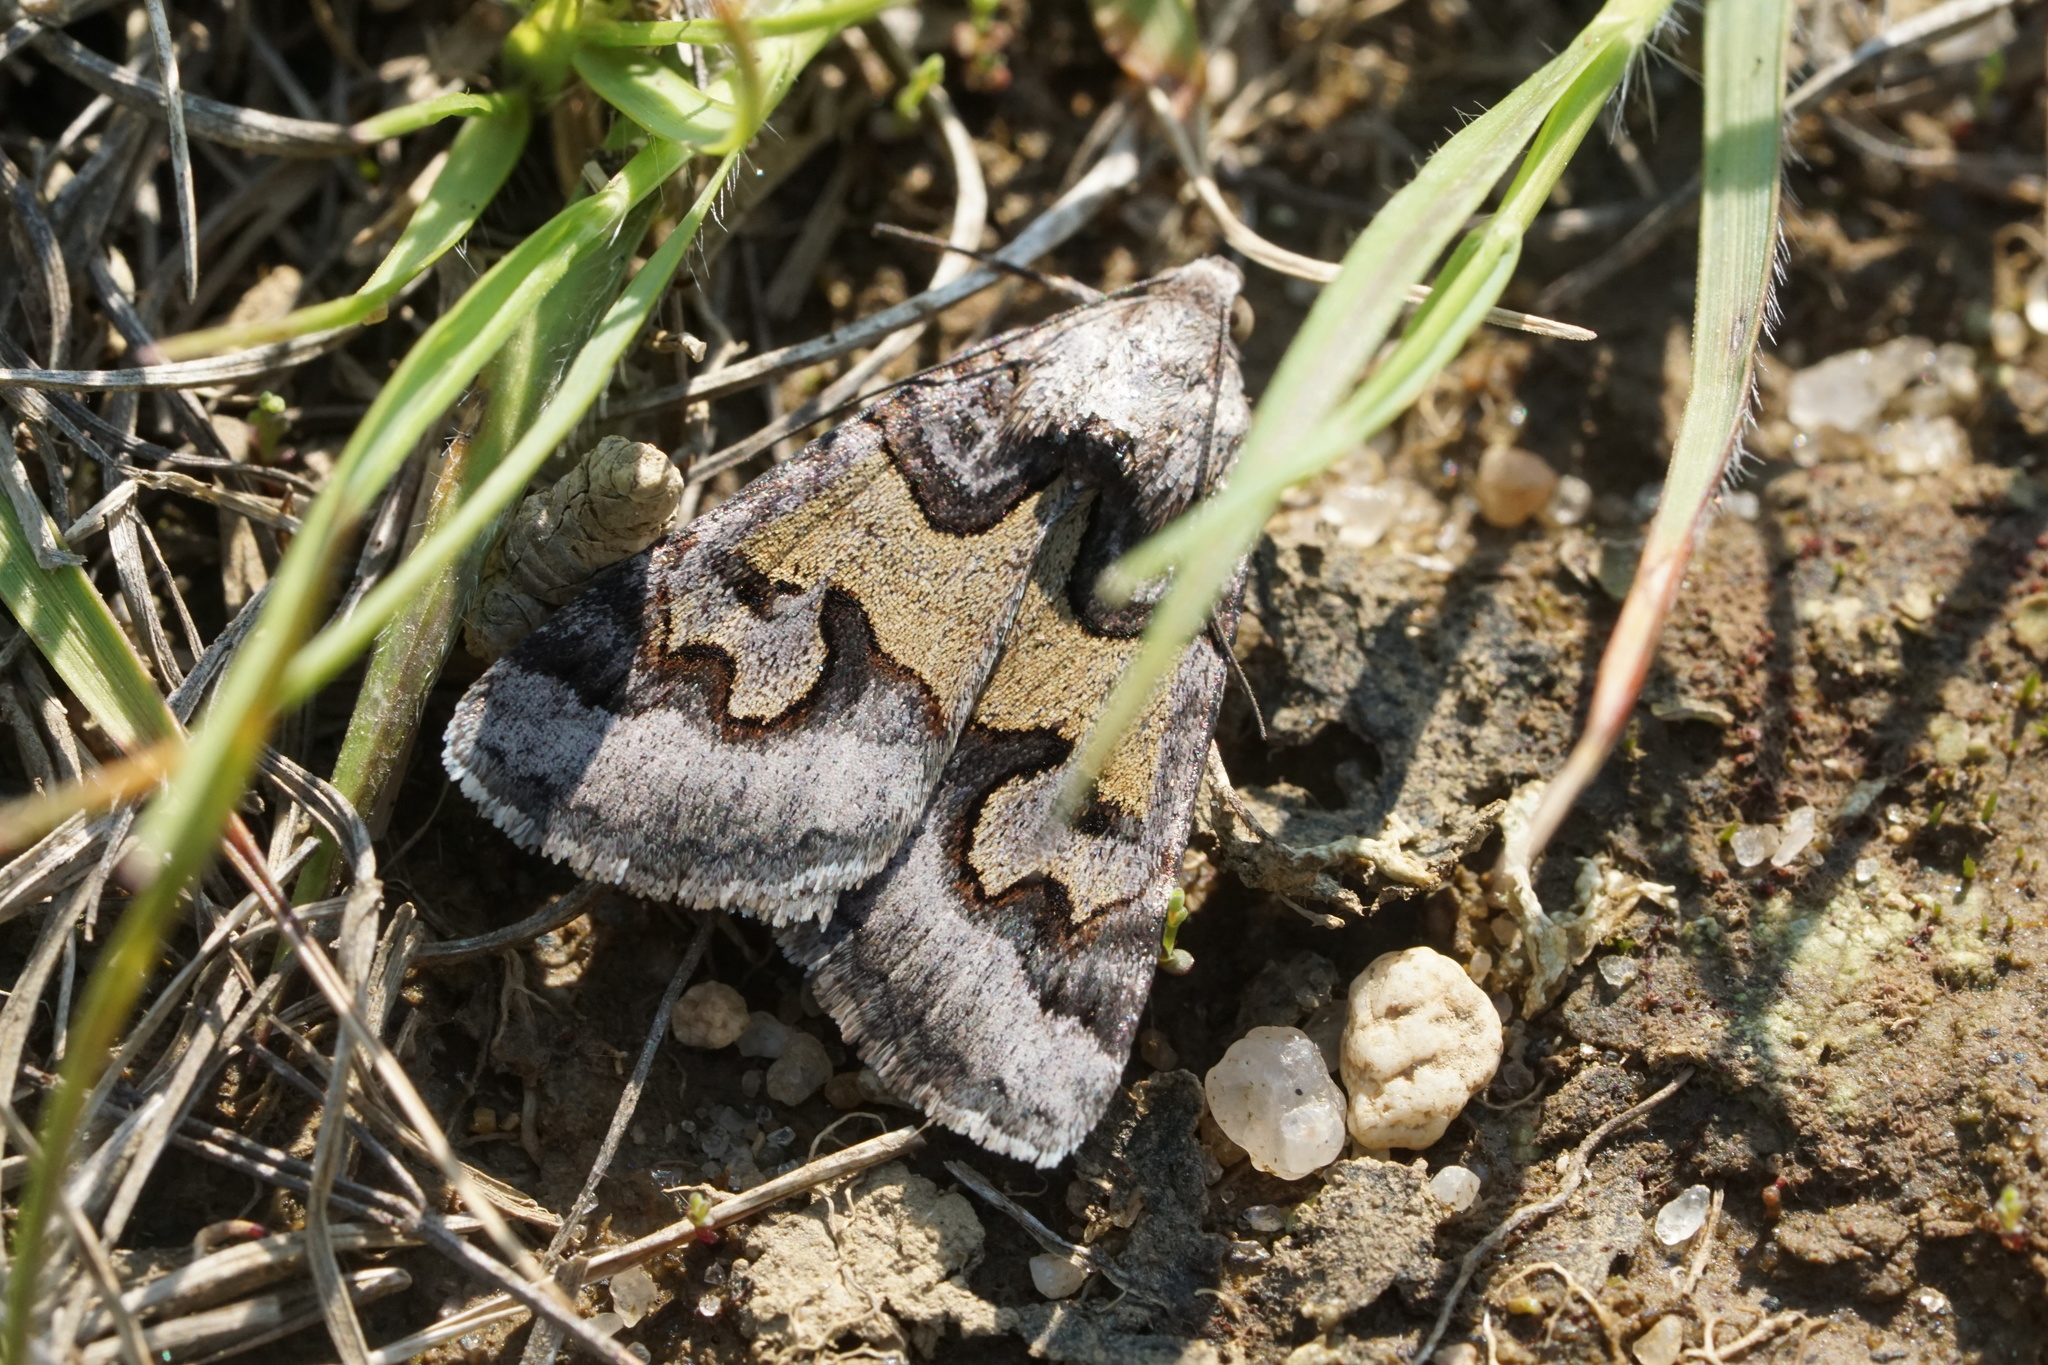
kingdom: Animalia
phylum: Arthropoda
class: Insecta
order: Lepidoptera
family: Erebidae
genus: Drasteria
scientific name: Drasteria graphica
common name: Coastal graphic
